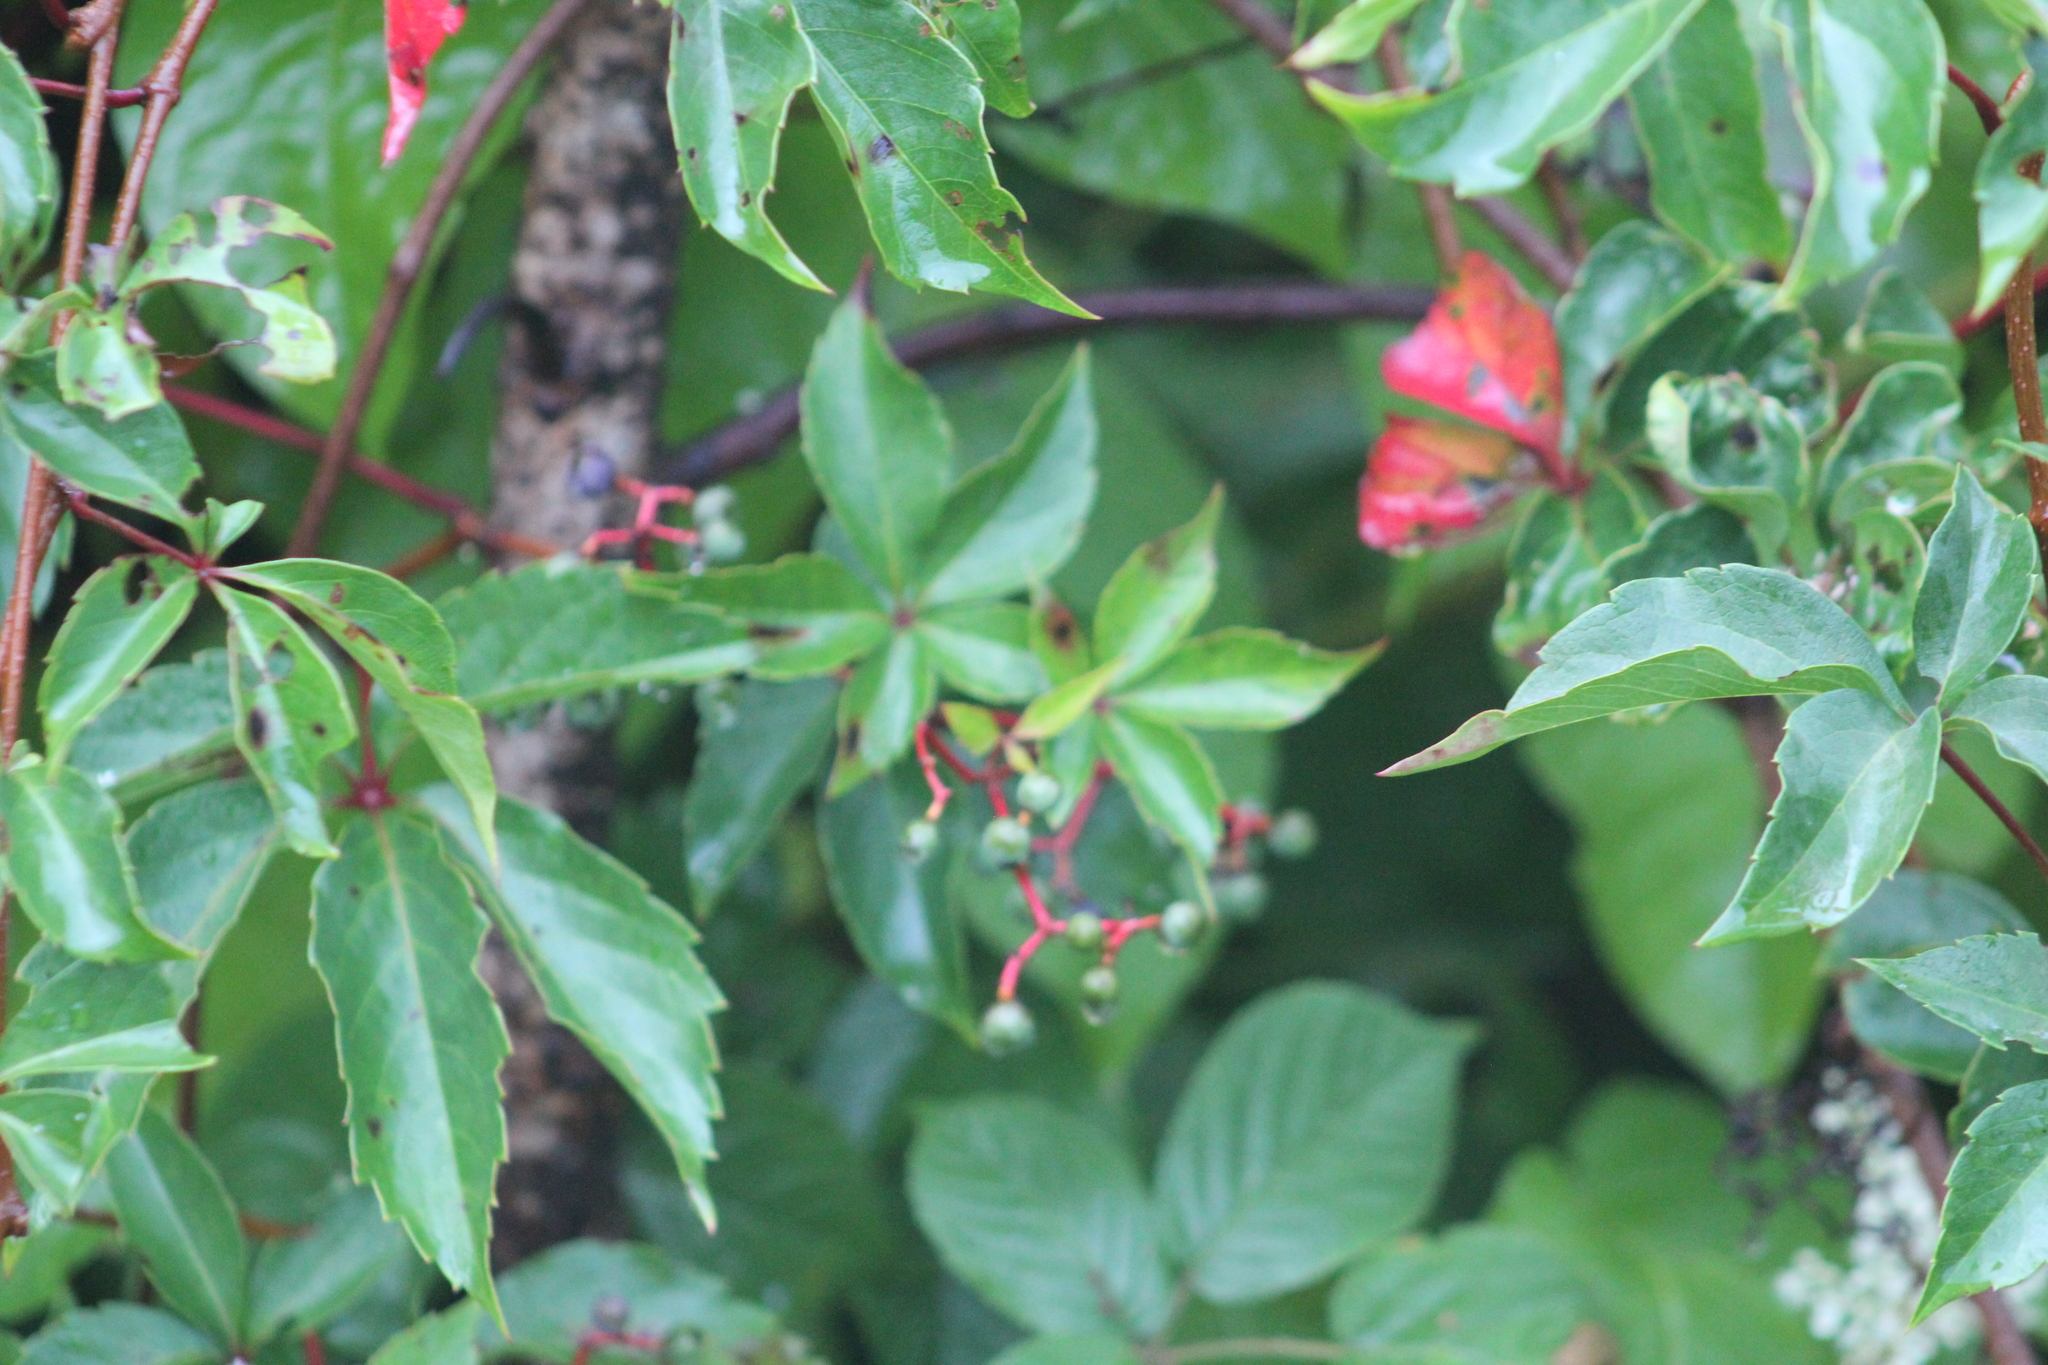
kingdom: Plantae
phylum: Tracheophyta
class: Magnoliopsida
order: Vitales
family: Vitaceae
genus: Parthenocissus
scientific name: Parthenocissus quinquefolia
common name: Virginia-creeper
